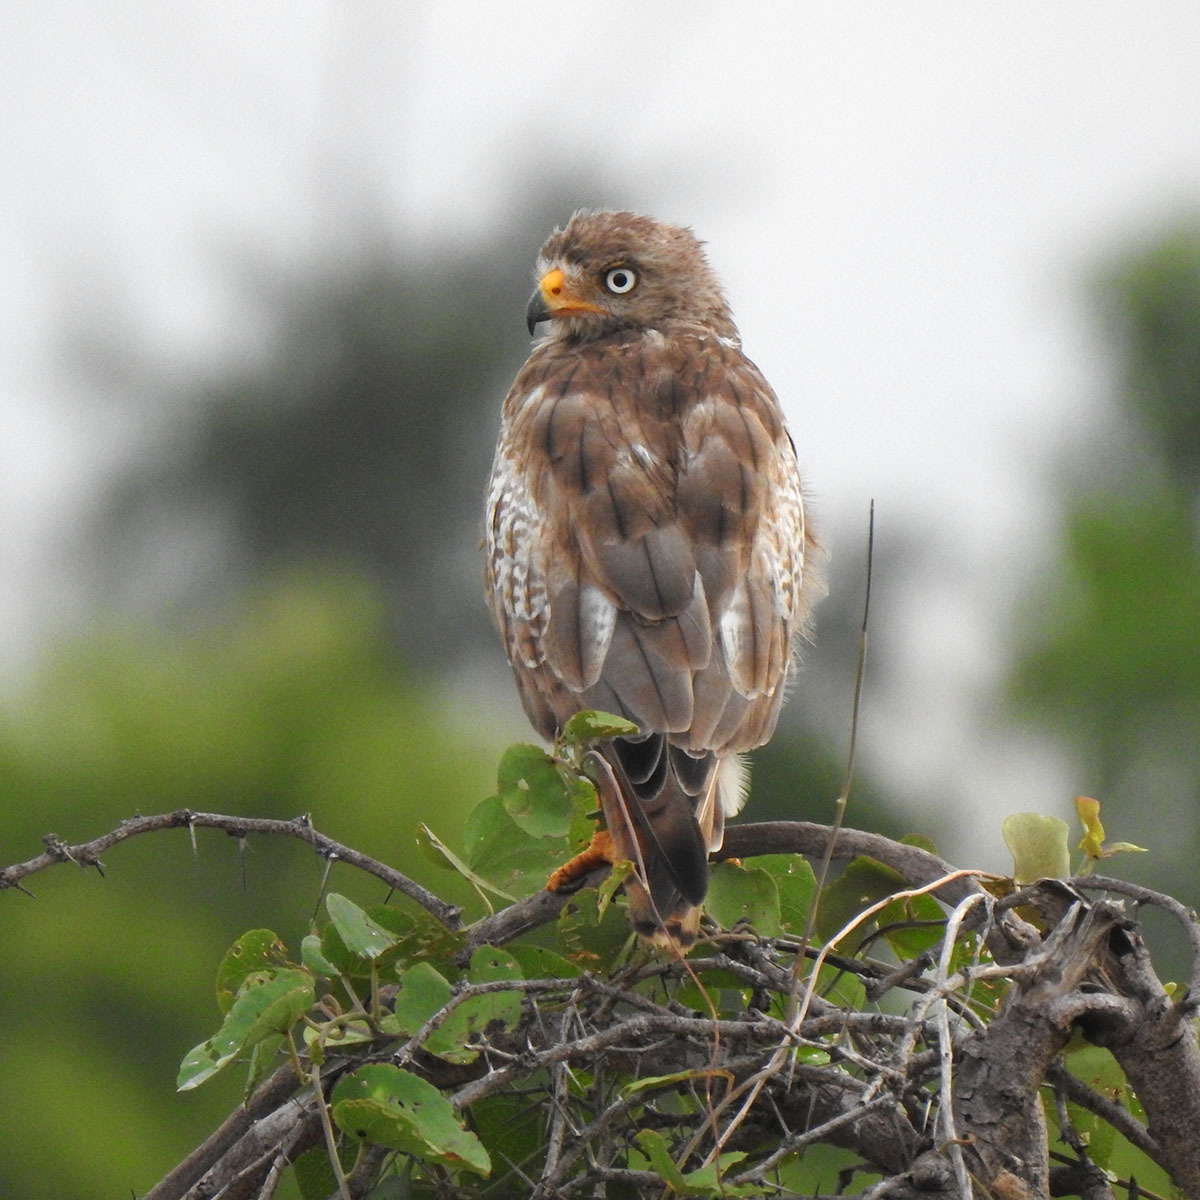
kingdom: Animalia
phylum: Chordata
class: Aves
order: Accipitriformes
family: Accipitridae
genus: Butastur
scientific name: Butastur teesa
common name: White-eyed buzzard
